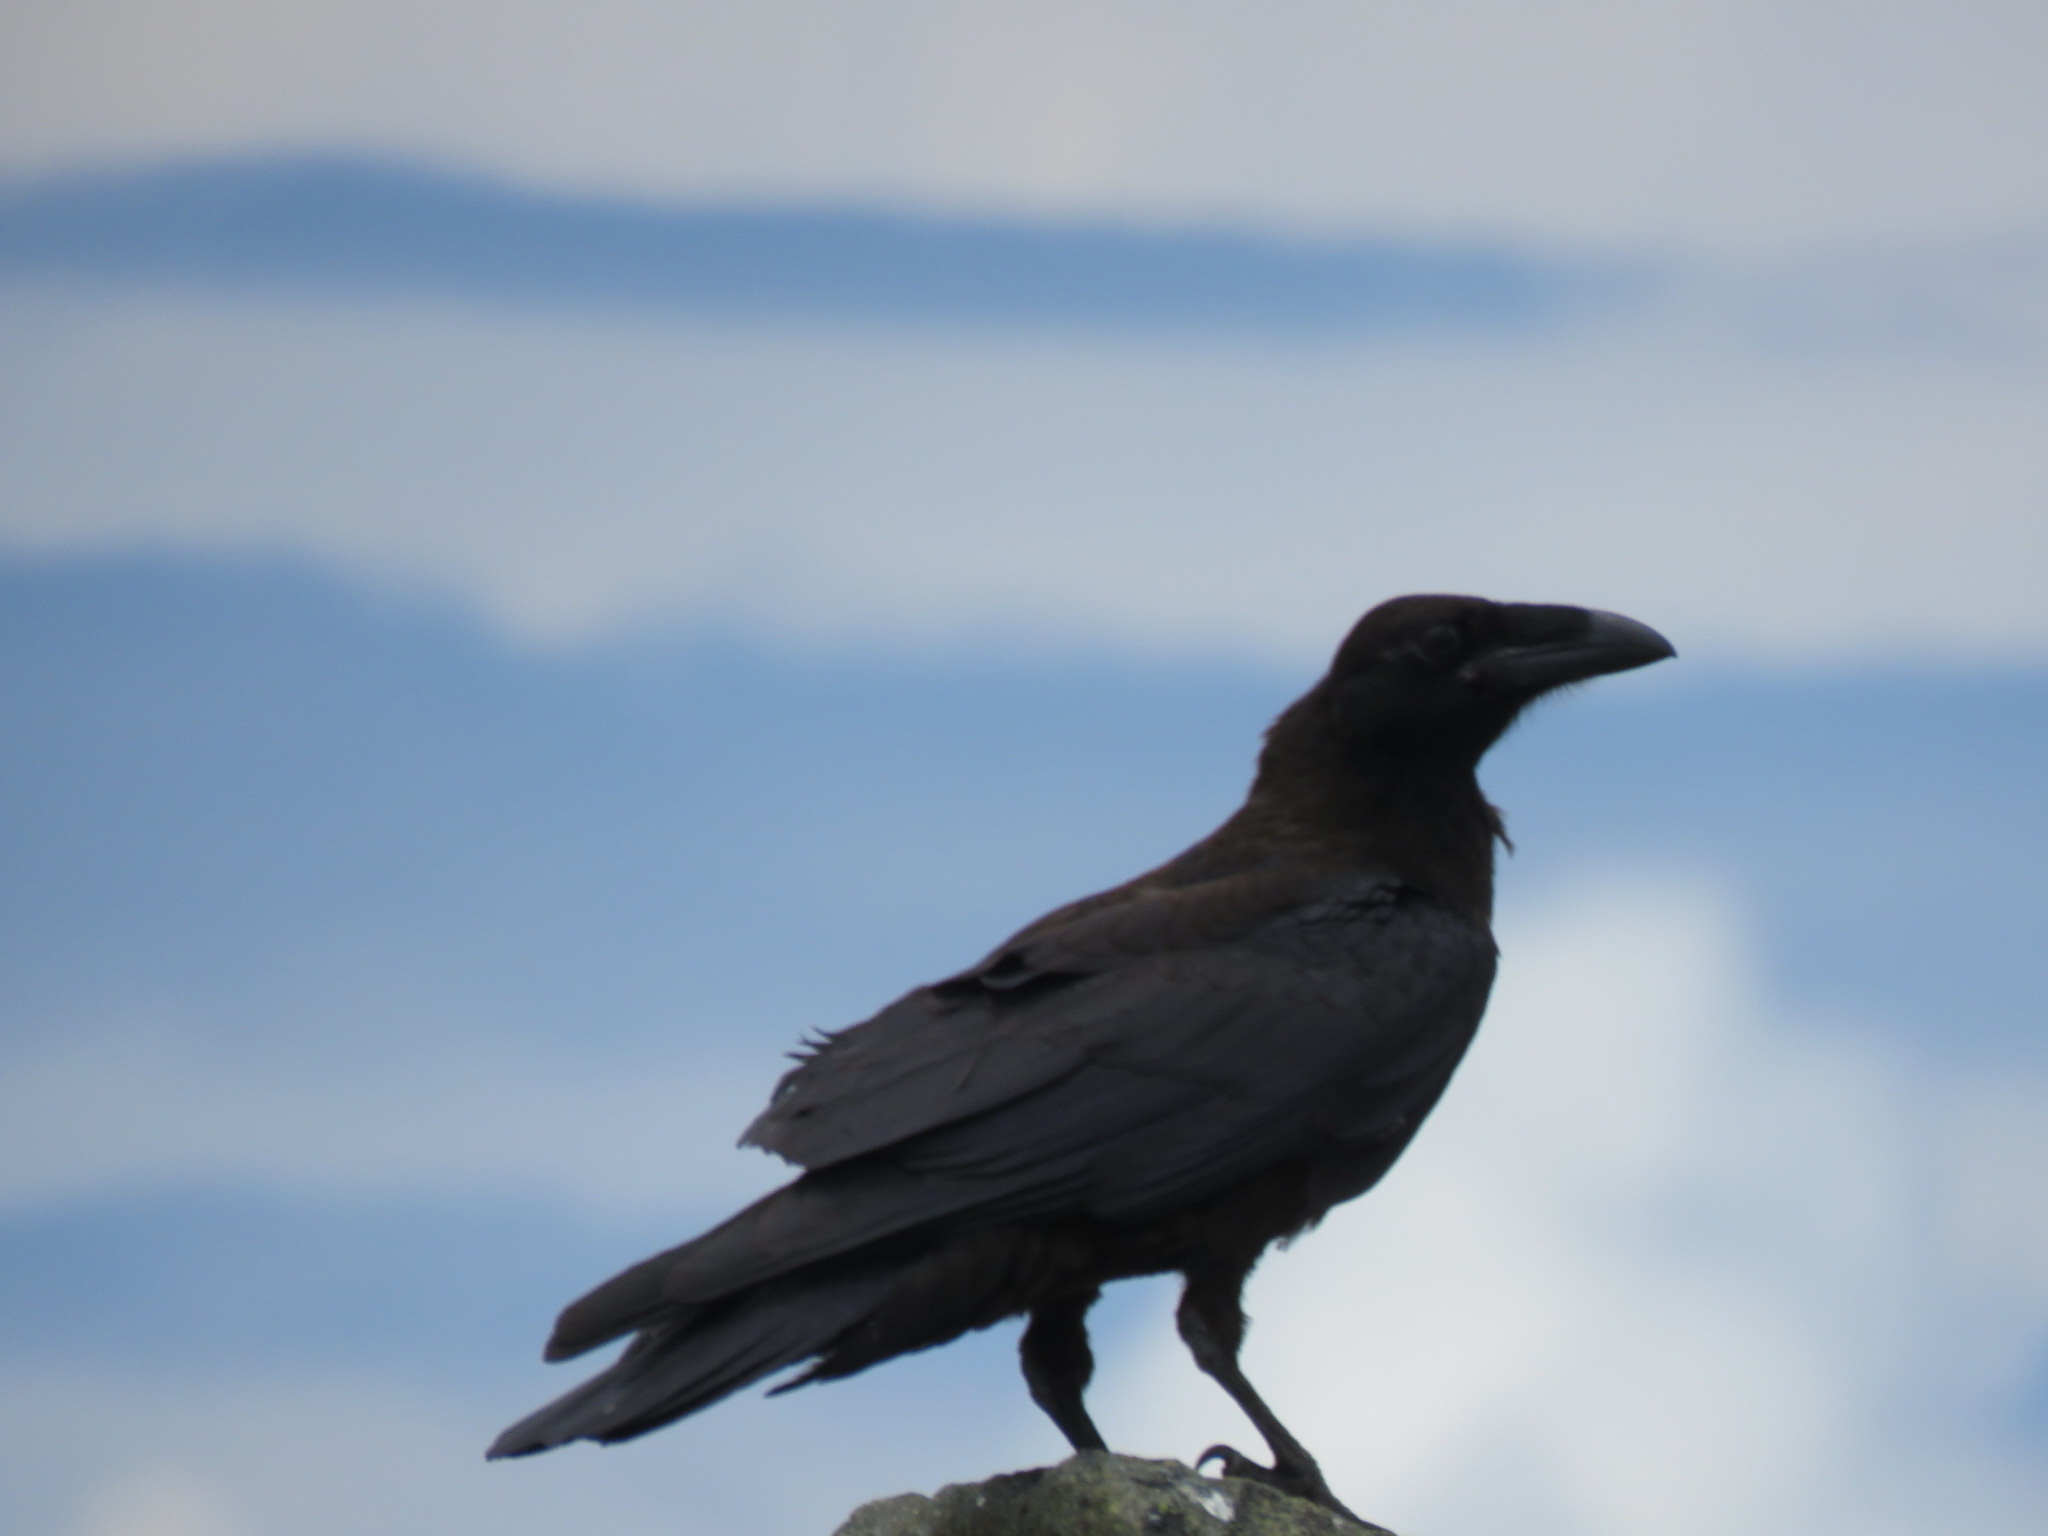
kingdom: Animalia
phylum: Chordata
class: Aves
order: Passeriformes
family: Corvidae
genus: Corvus
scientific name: Corvus corax
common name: Common raven
